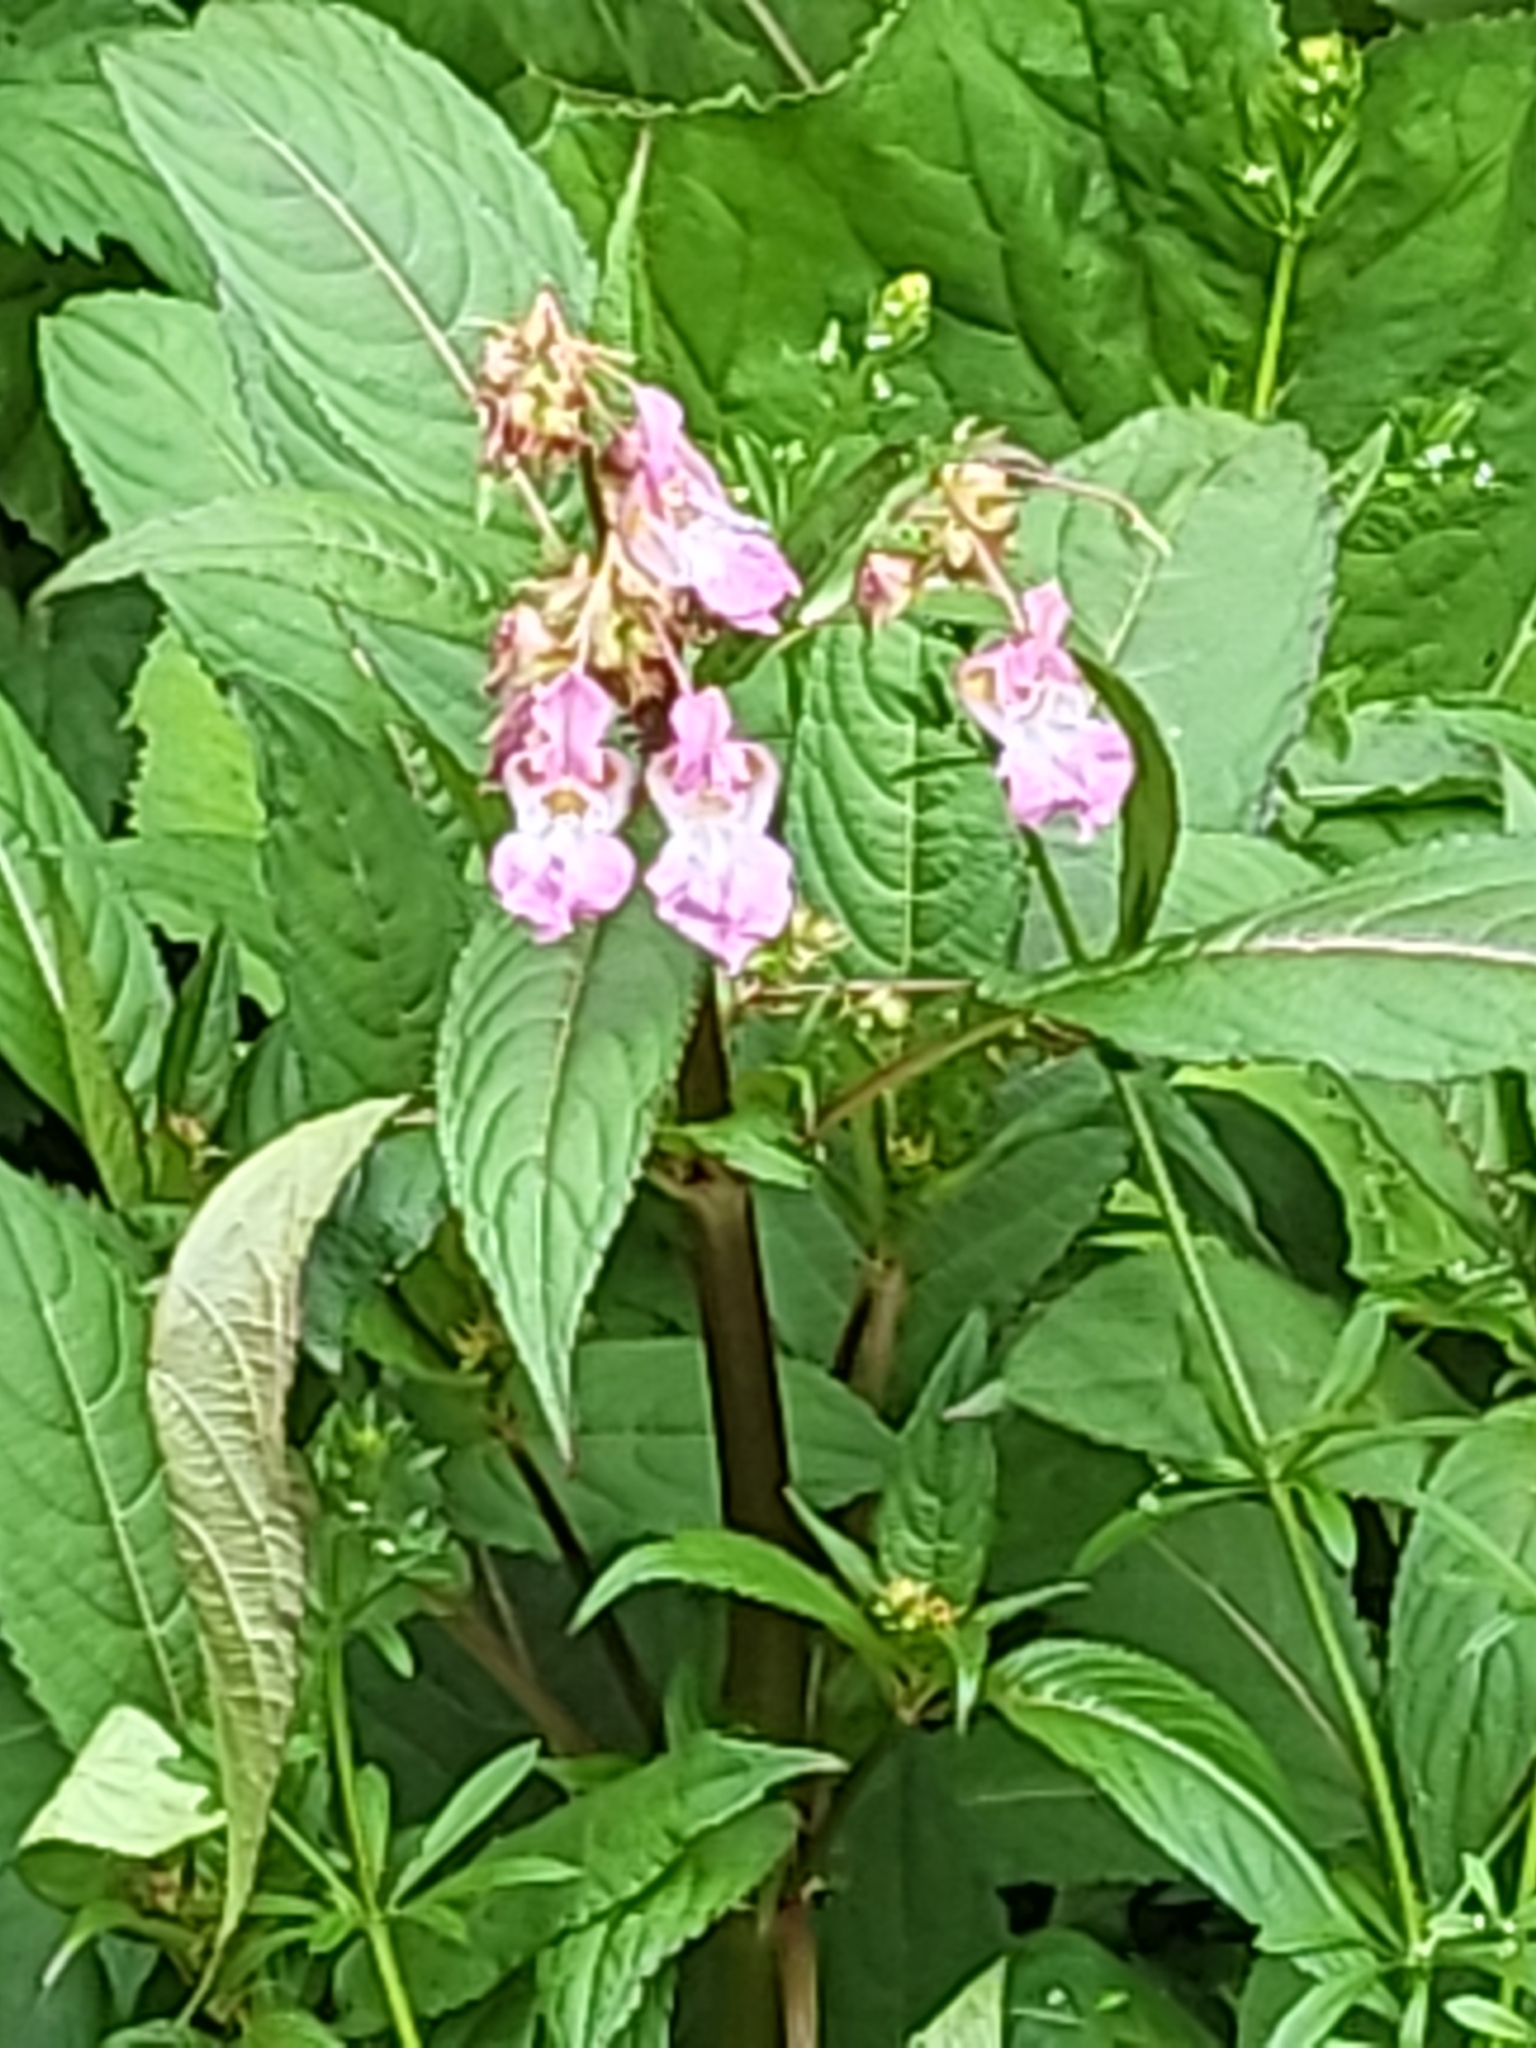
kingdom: Plantae
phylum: Tracheophyta
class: Magnoliopsida
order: Ericales
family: Balsaminaceae
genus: Impatiens
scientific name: Impatiens glandulifera
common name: Himalayan balsam
